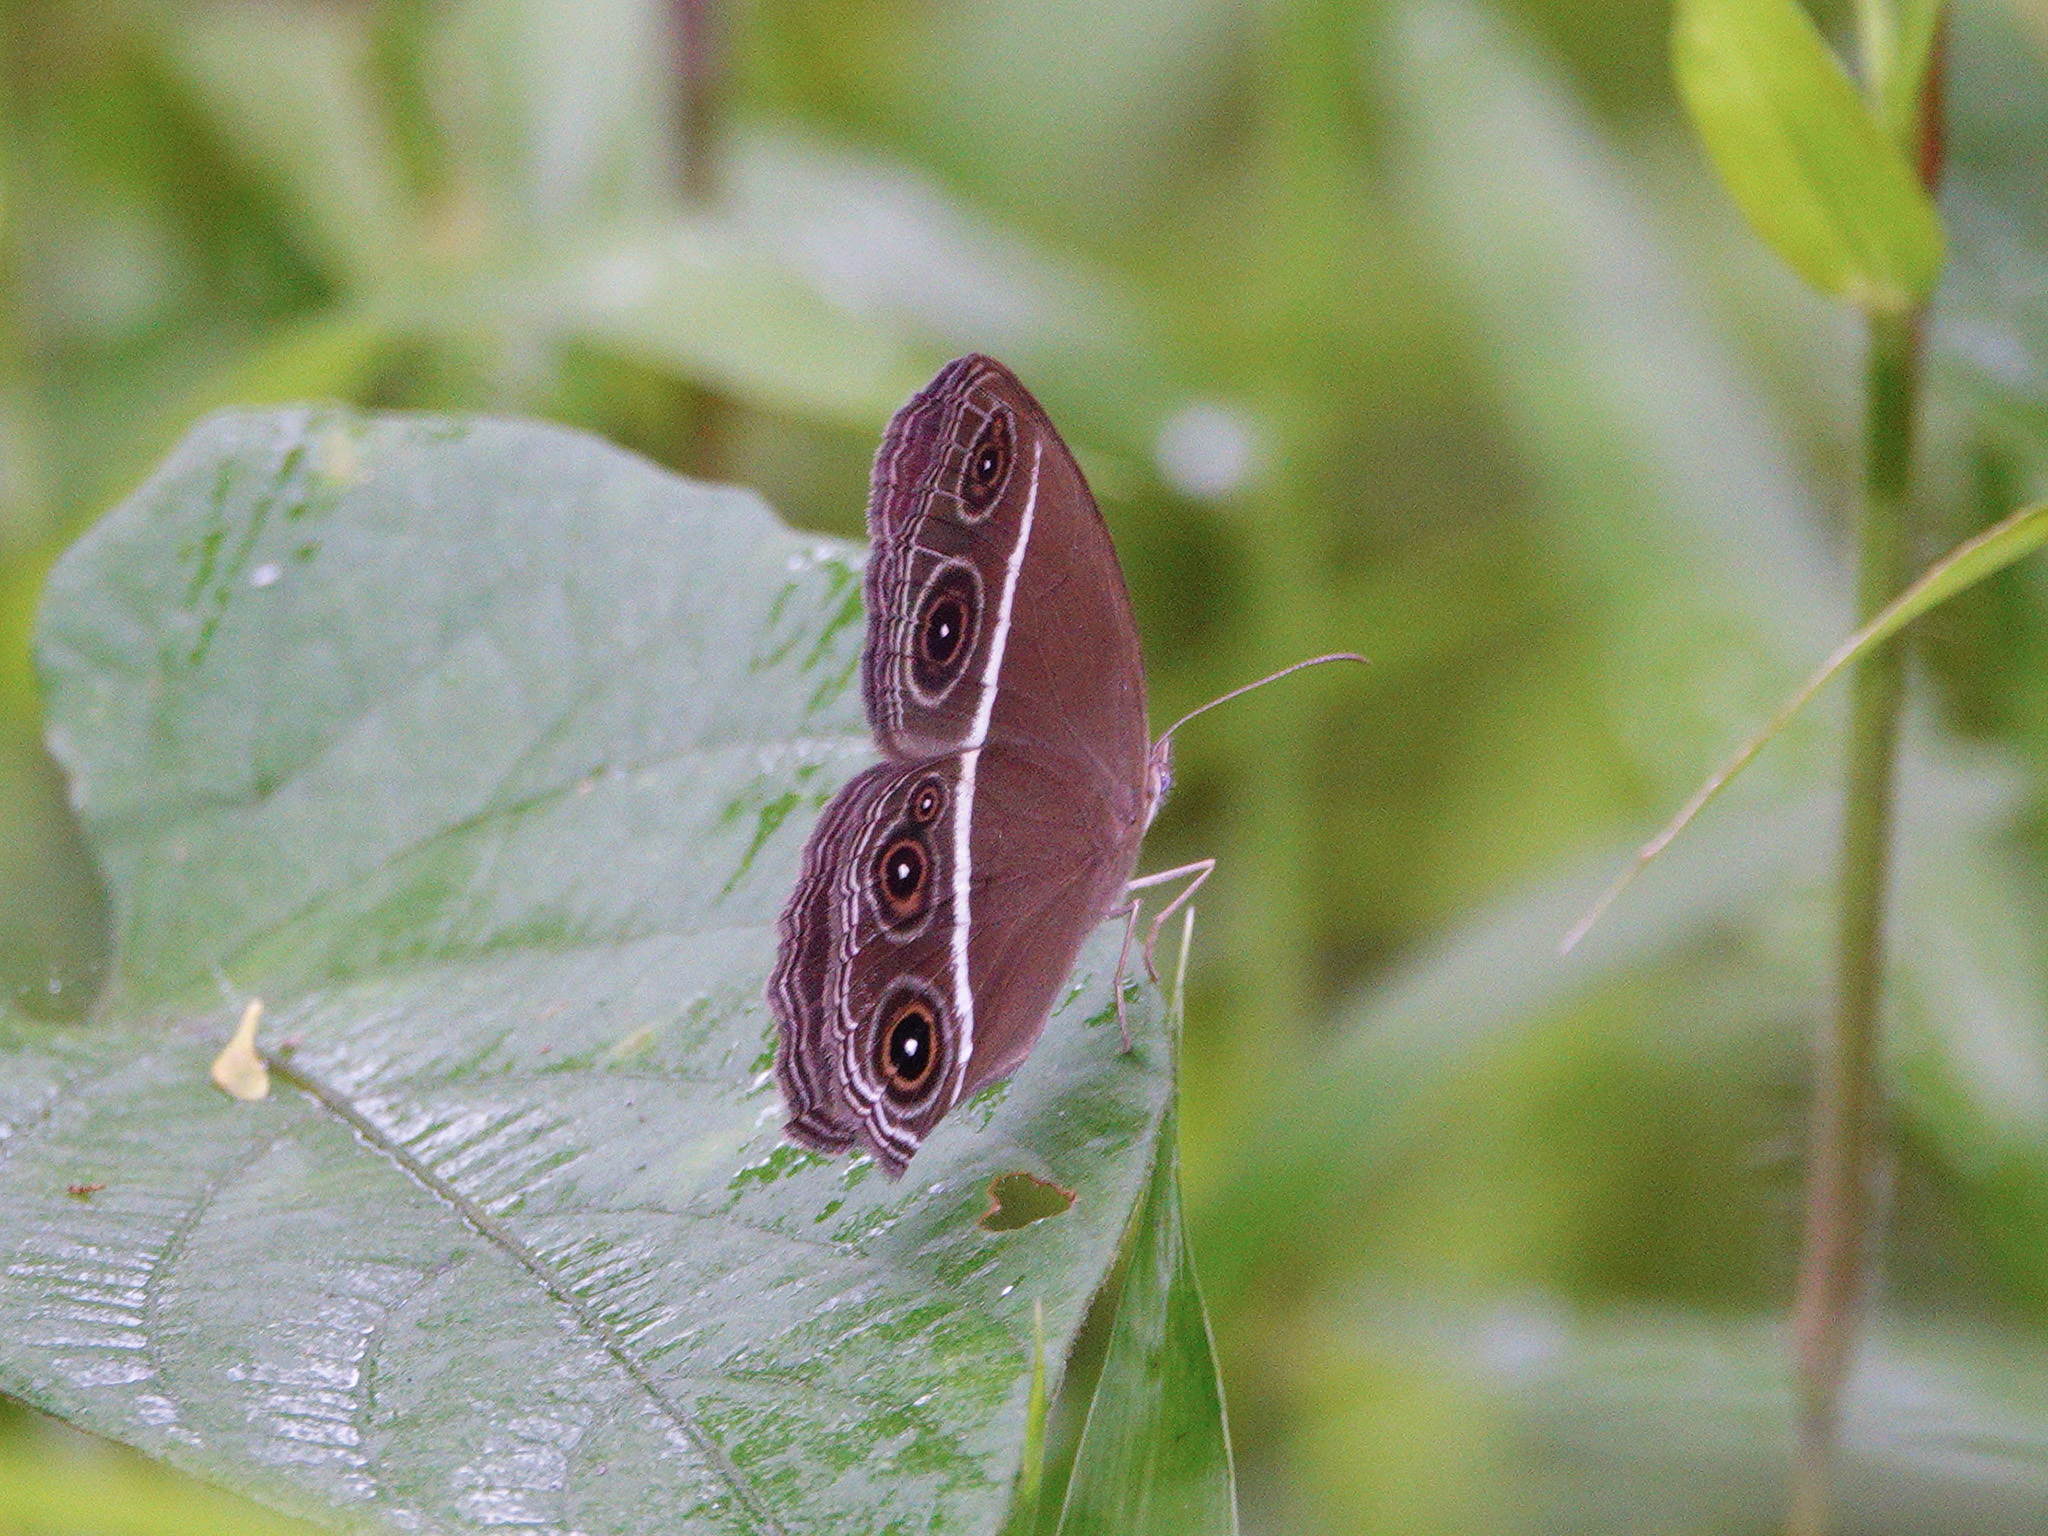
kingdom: Animalia
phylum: Arthropoda
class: Insecta
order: Lepidoptera
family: Nymphalidae
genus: Orsotriaena
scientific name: Orsotriaena medus
